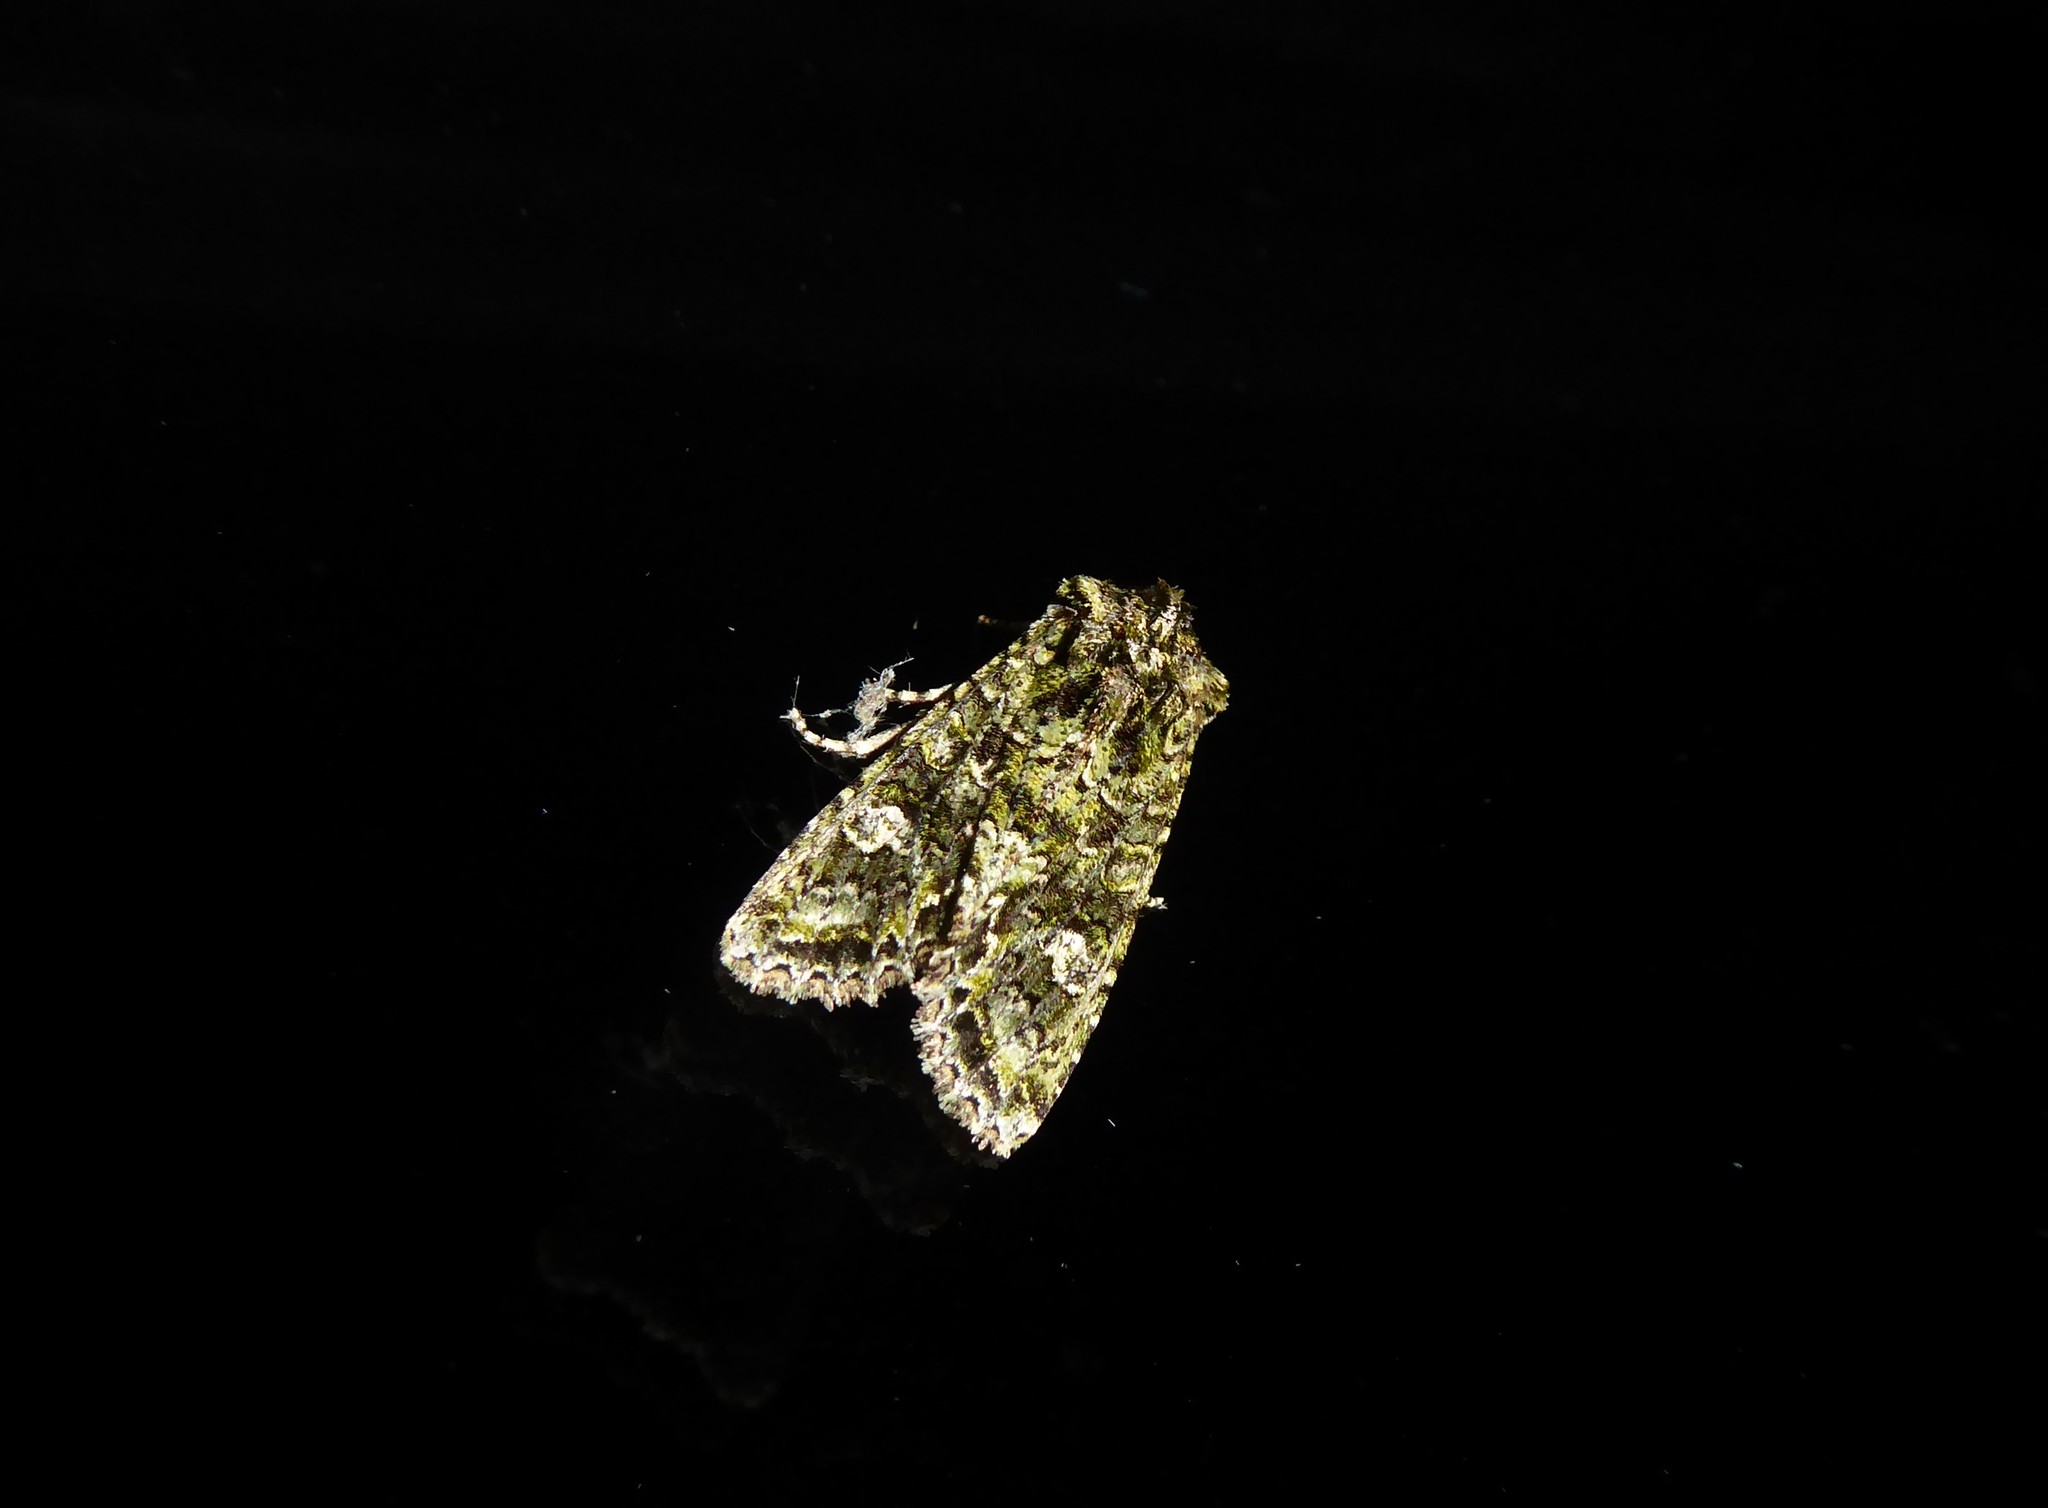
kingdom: Animalia
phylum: Arthropoda
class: Insecta
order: Lepidoptera
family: Noctuidae
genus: Ichneutica
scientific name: Ichneutica
